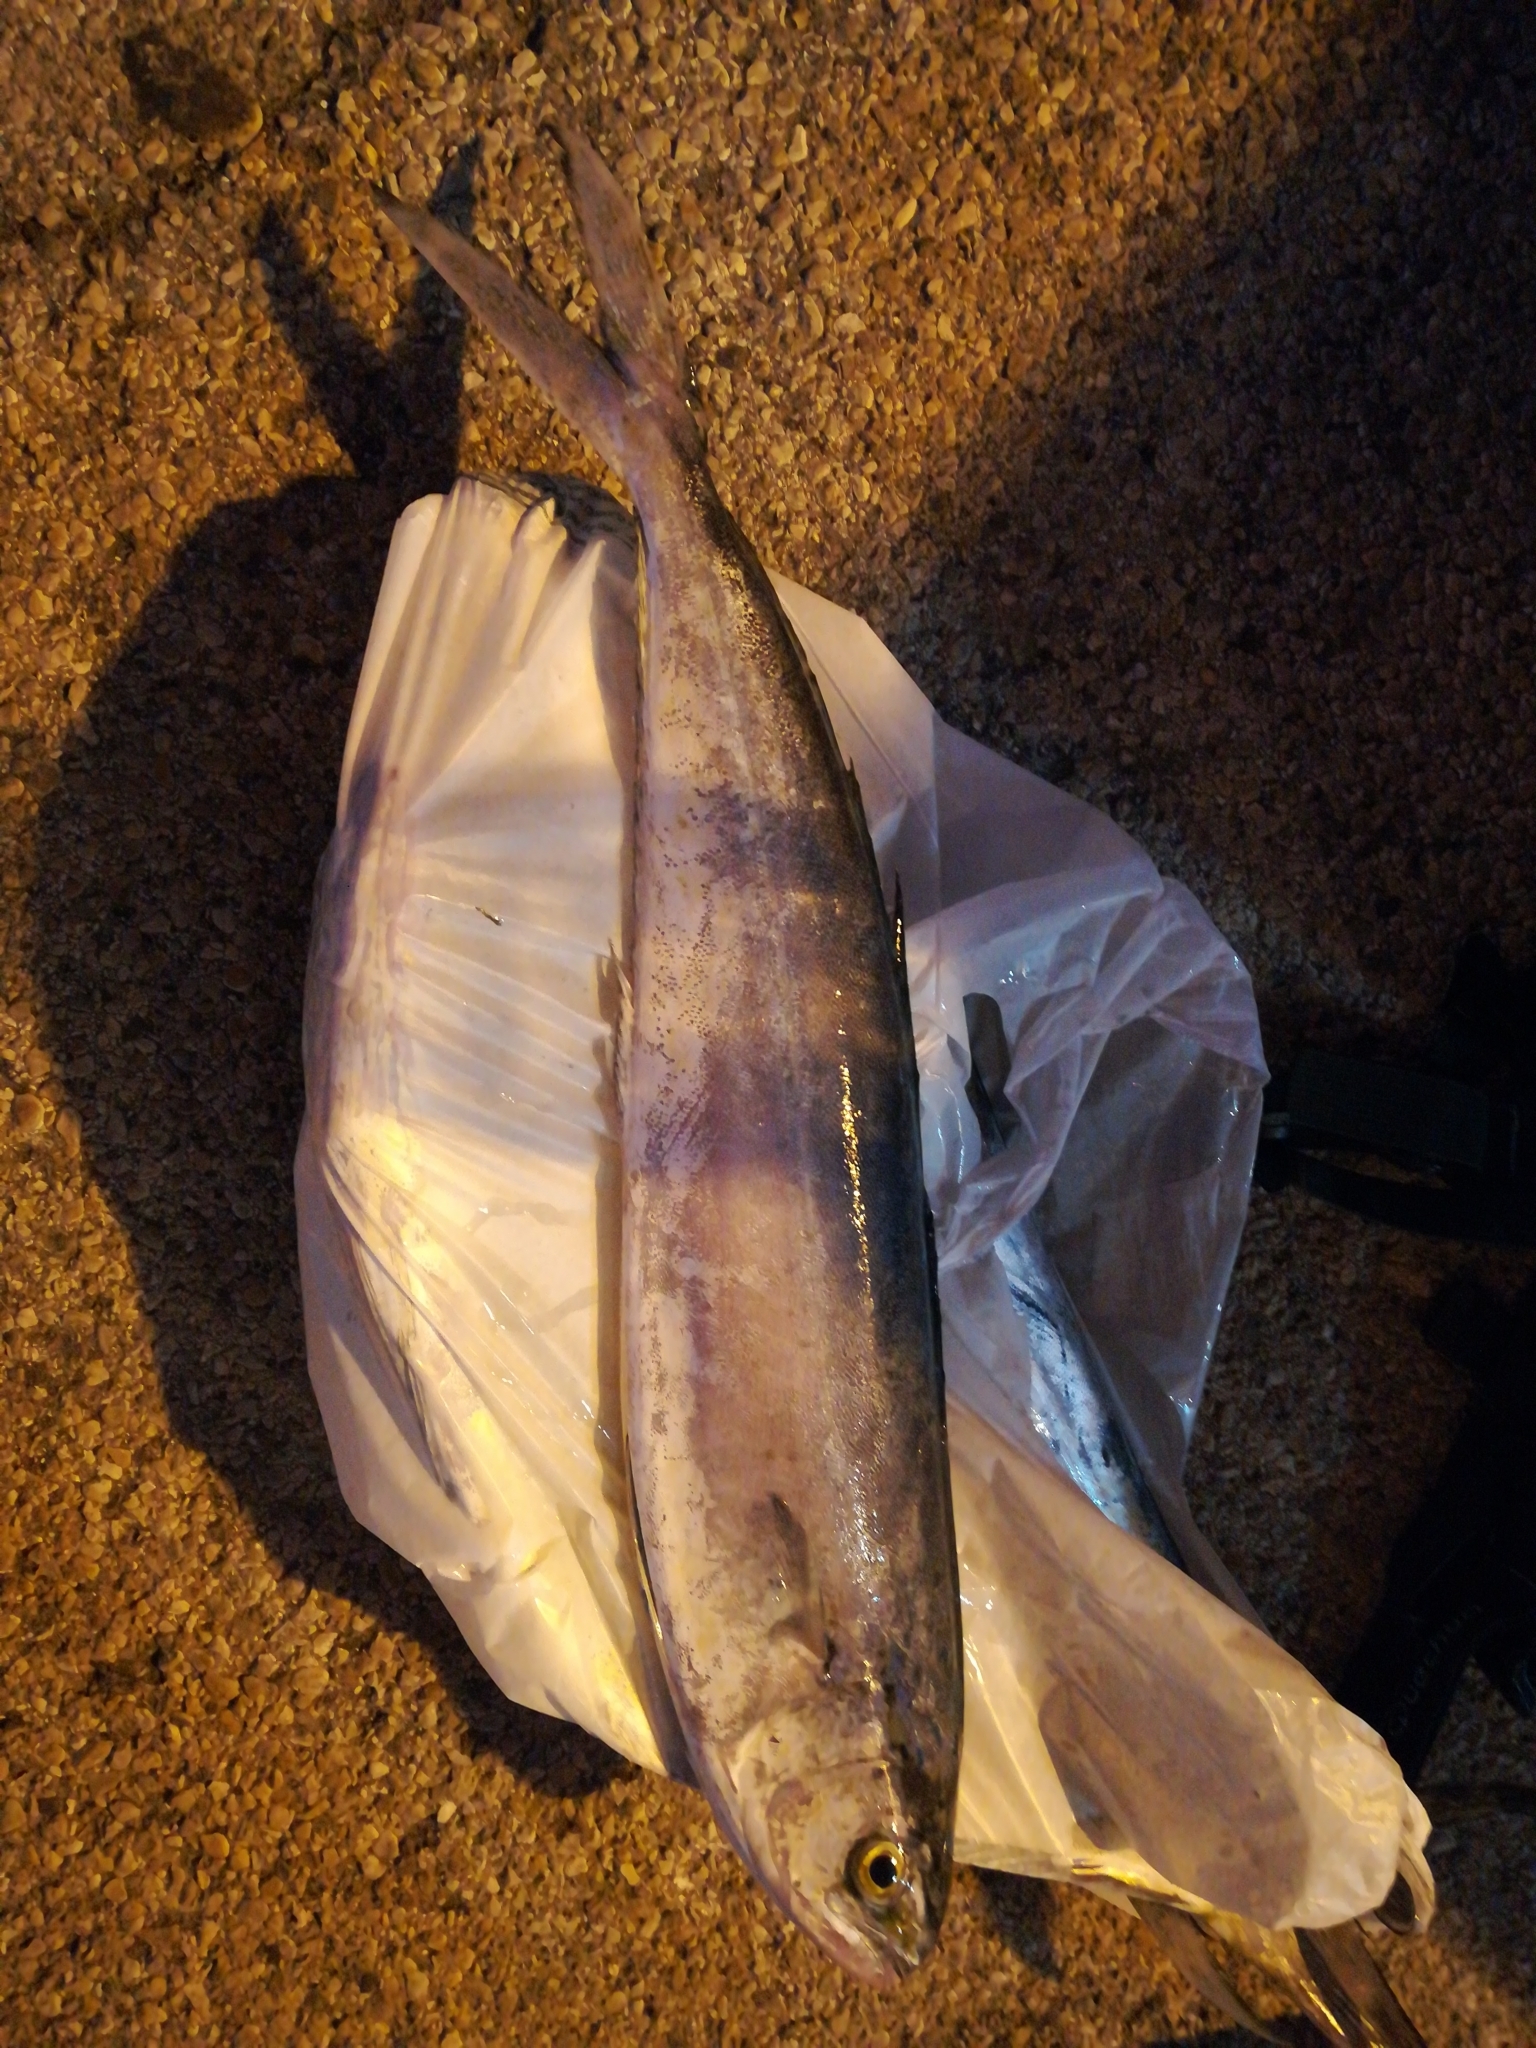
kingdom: Animalia
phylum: Chordata
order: Perciformes
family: Coryphaenidae
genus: Coryphaena
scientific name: Coryphaena hippurus
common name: Dolphin
